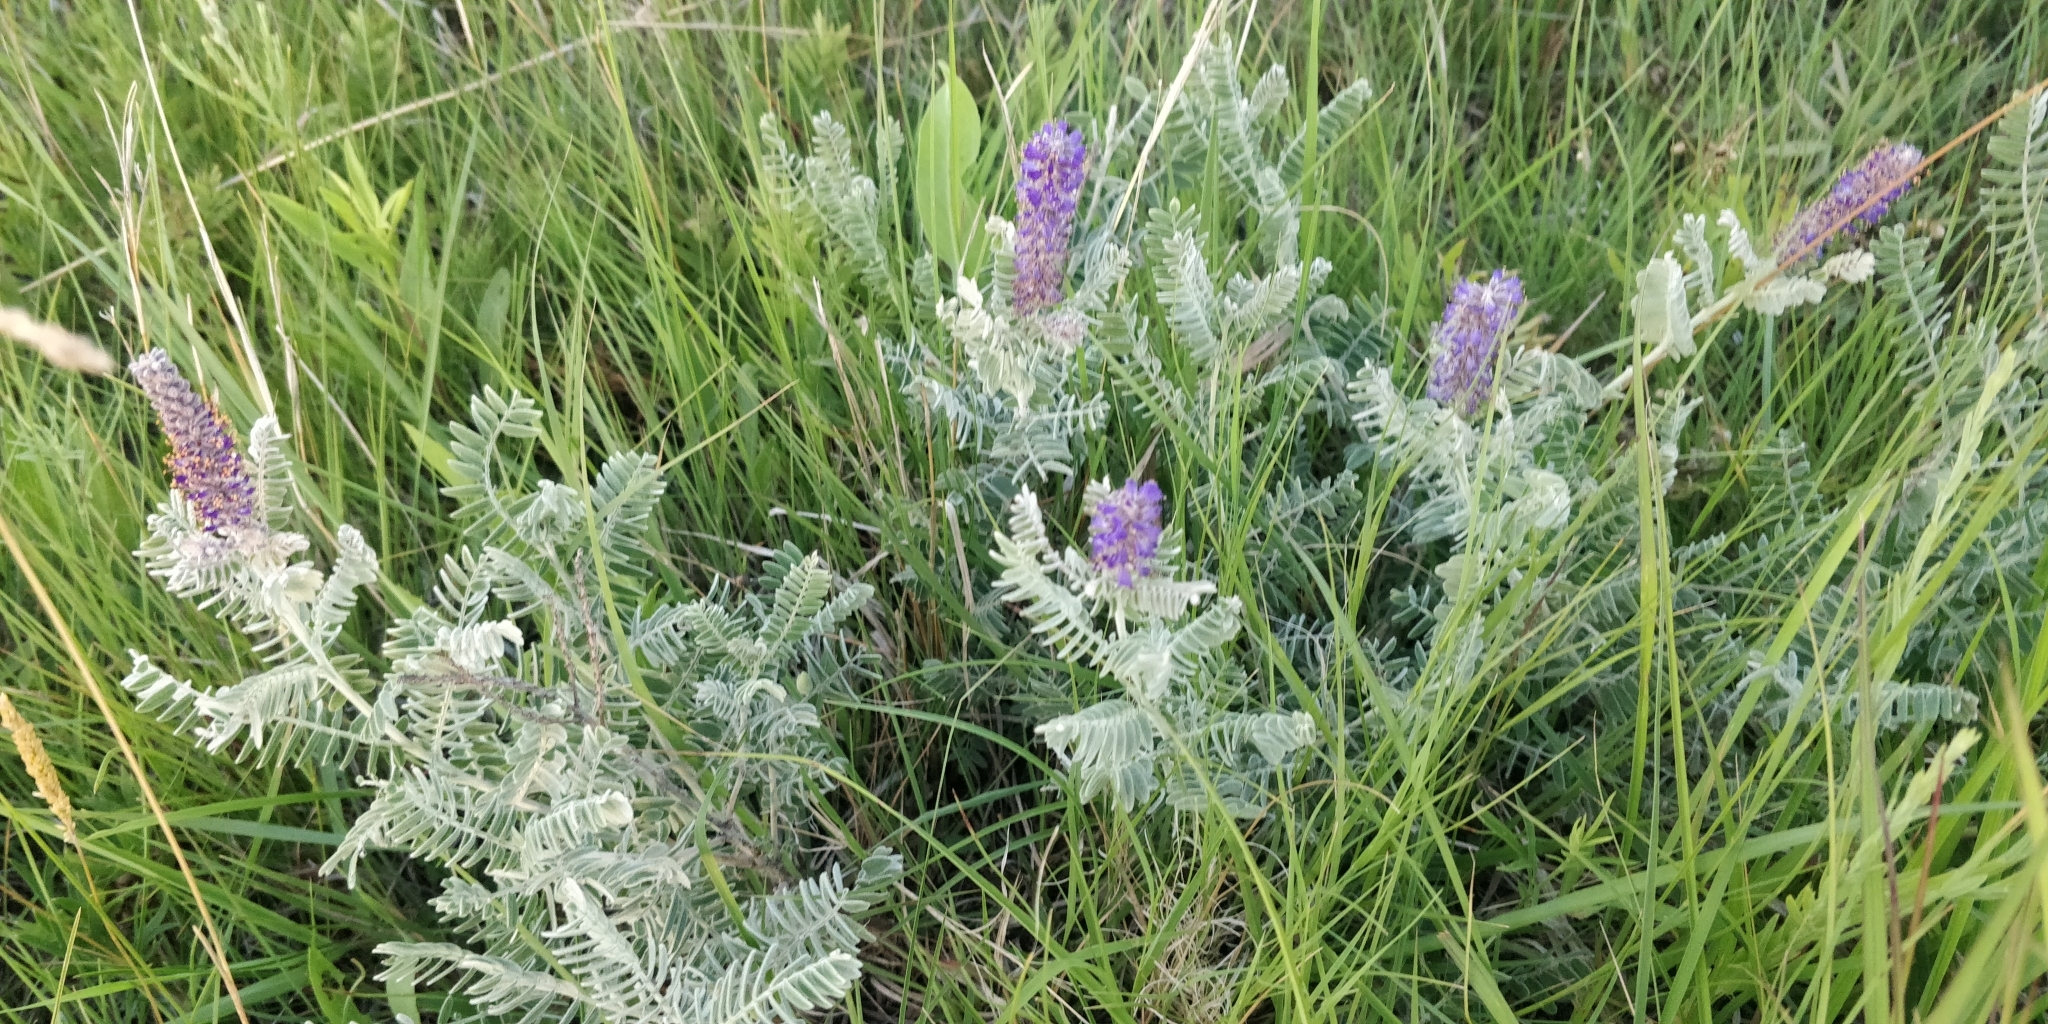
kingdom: Plantae
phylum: Tracheophyta
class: Magnoliopsida
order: Fabales
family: Fabaceae
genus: Amorpha
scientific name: Amorpha canescens
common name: Leadplant
